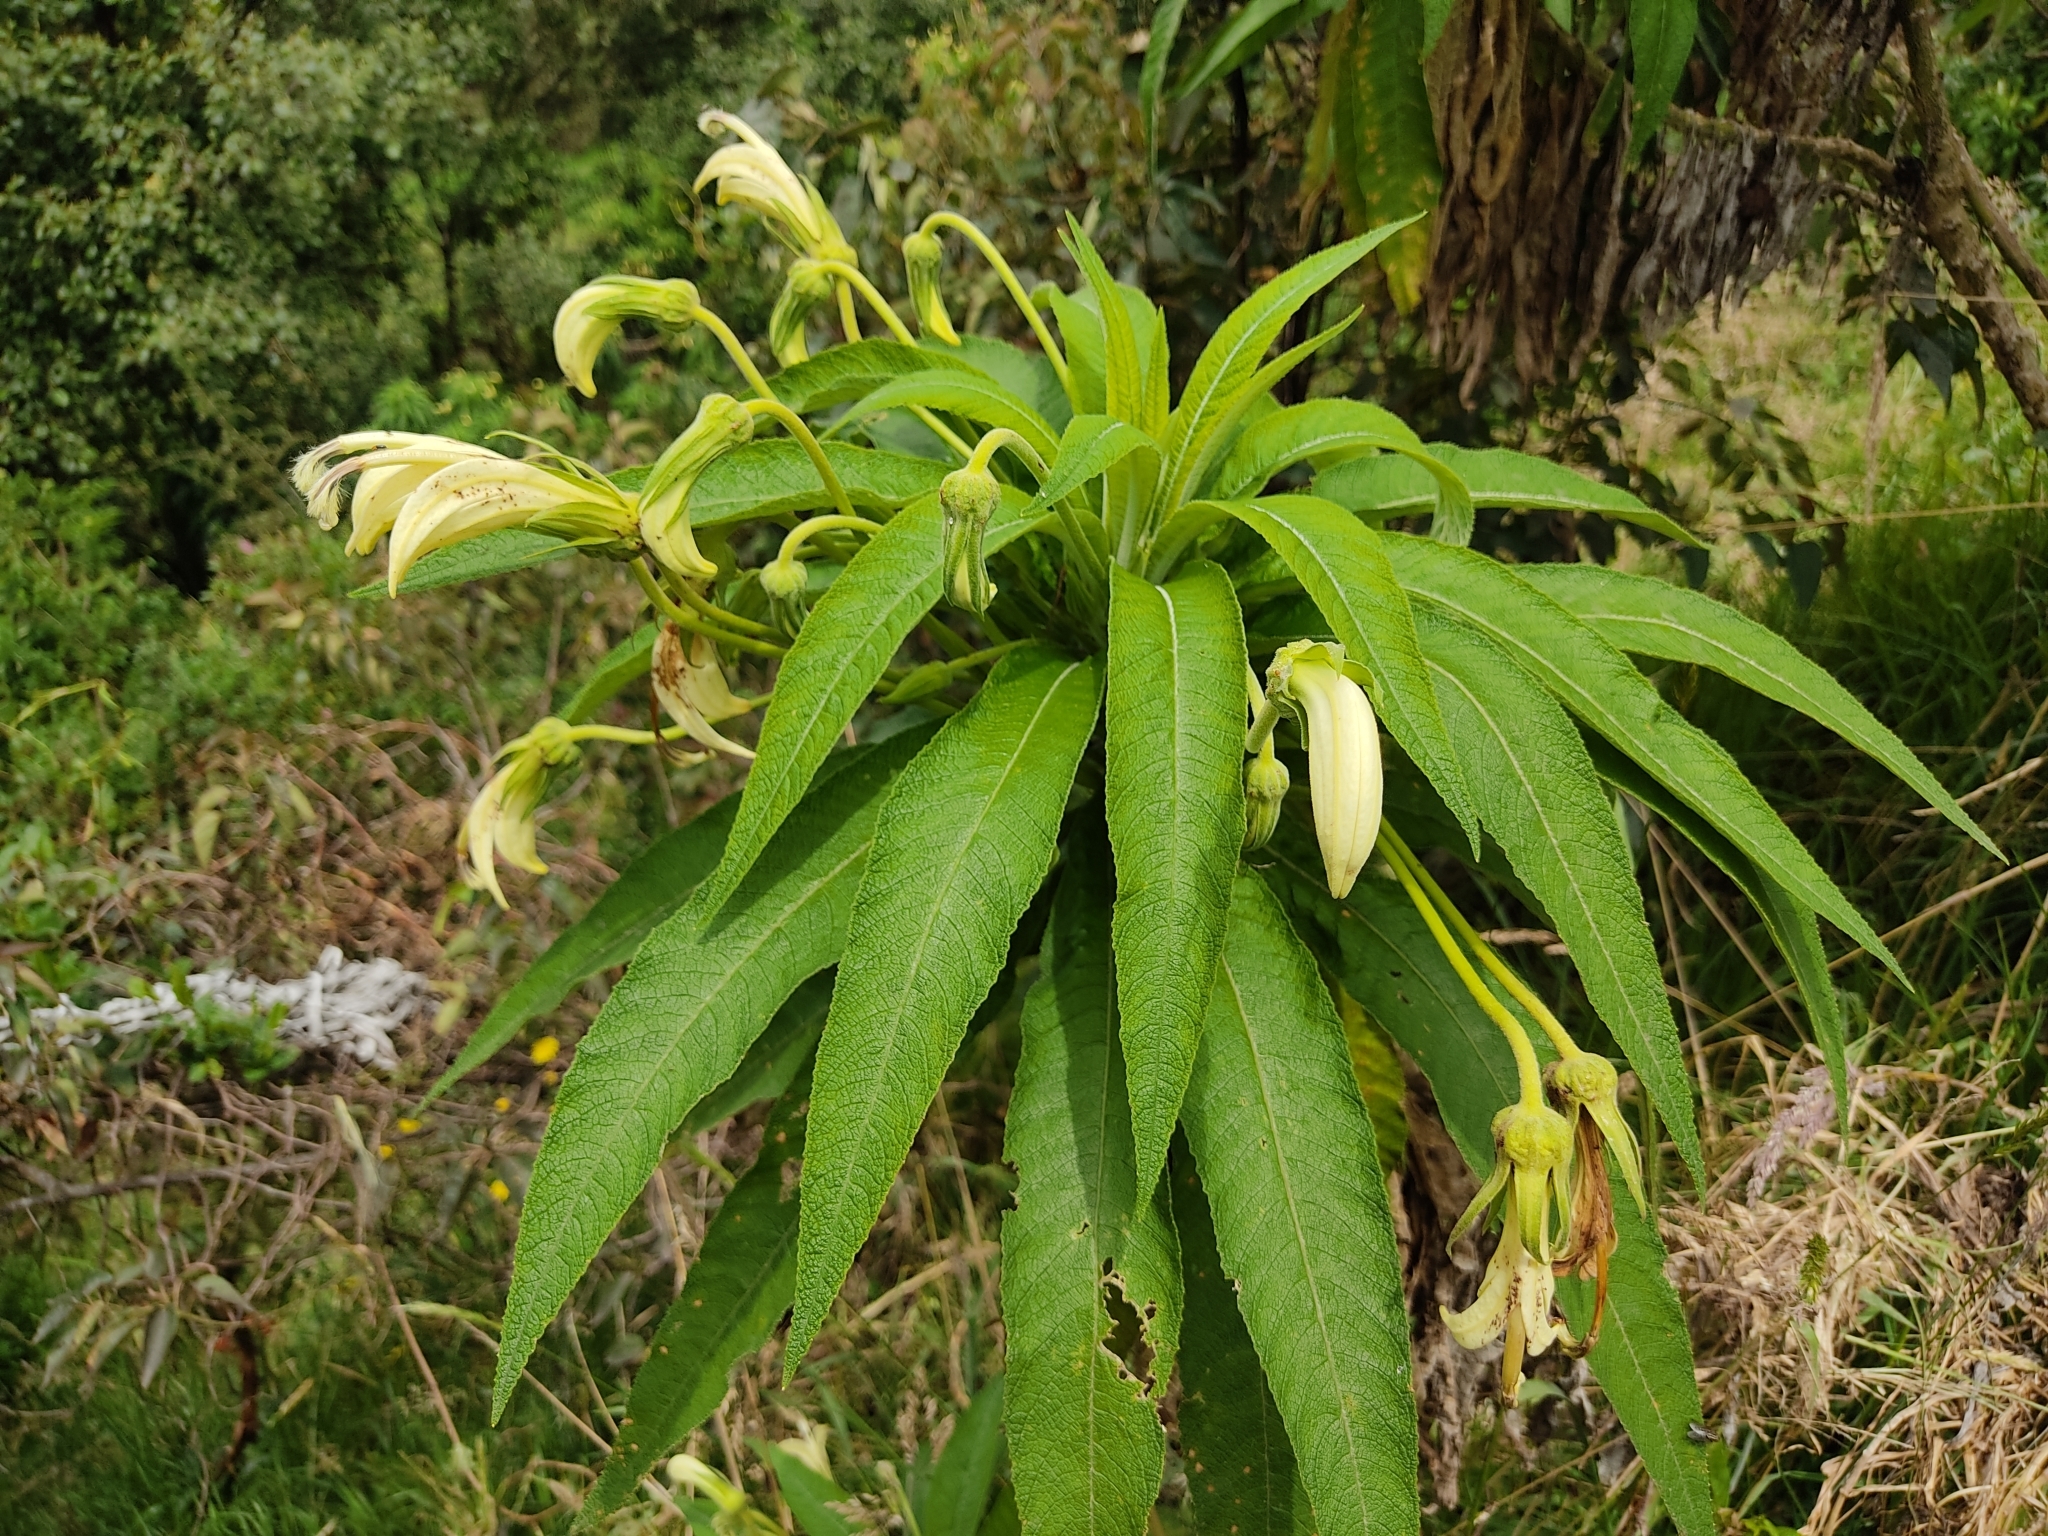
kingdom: Plantae
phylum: Tracheophyta
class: Magnoliopsida
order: Asterales
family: Campanulaceae
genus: Siphocampylus
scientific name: Siphocampylus giganteus
